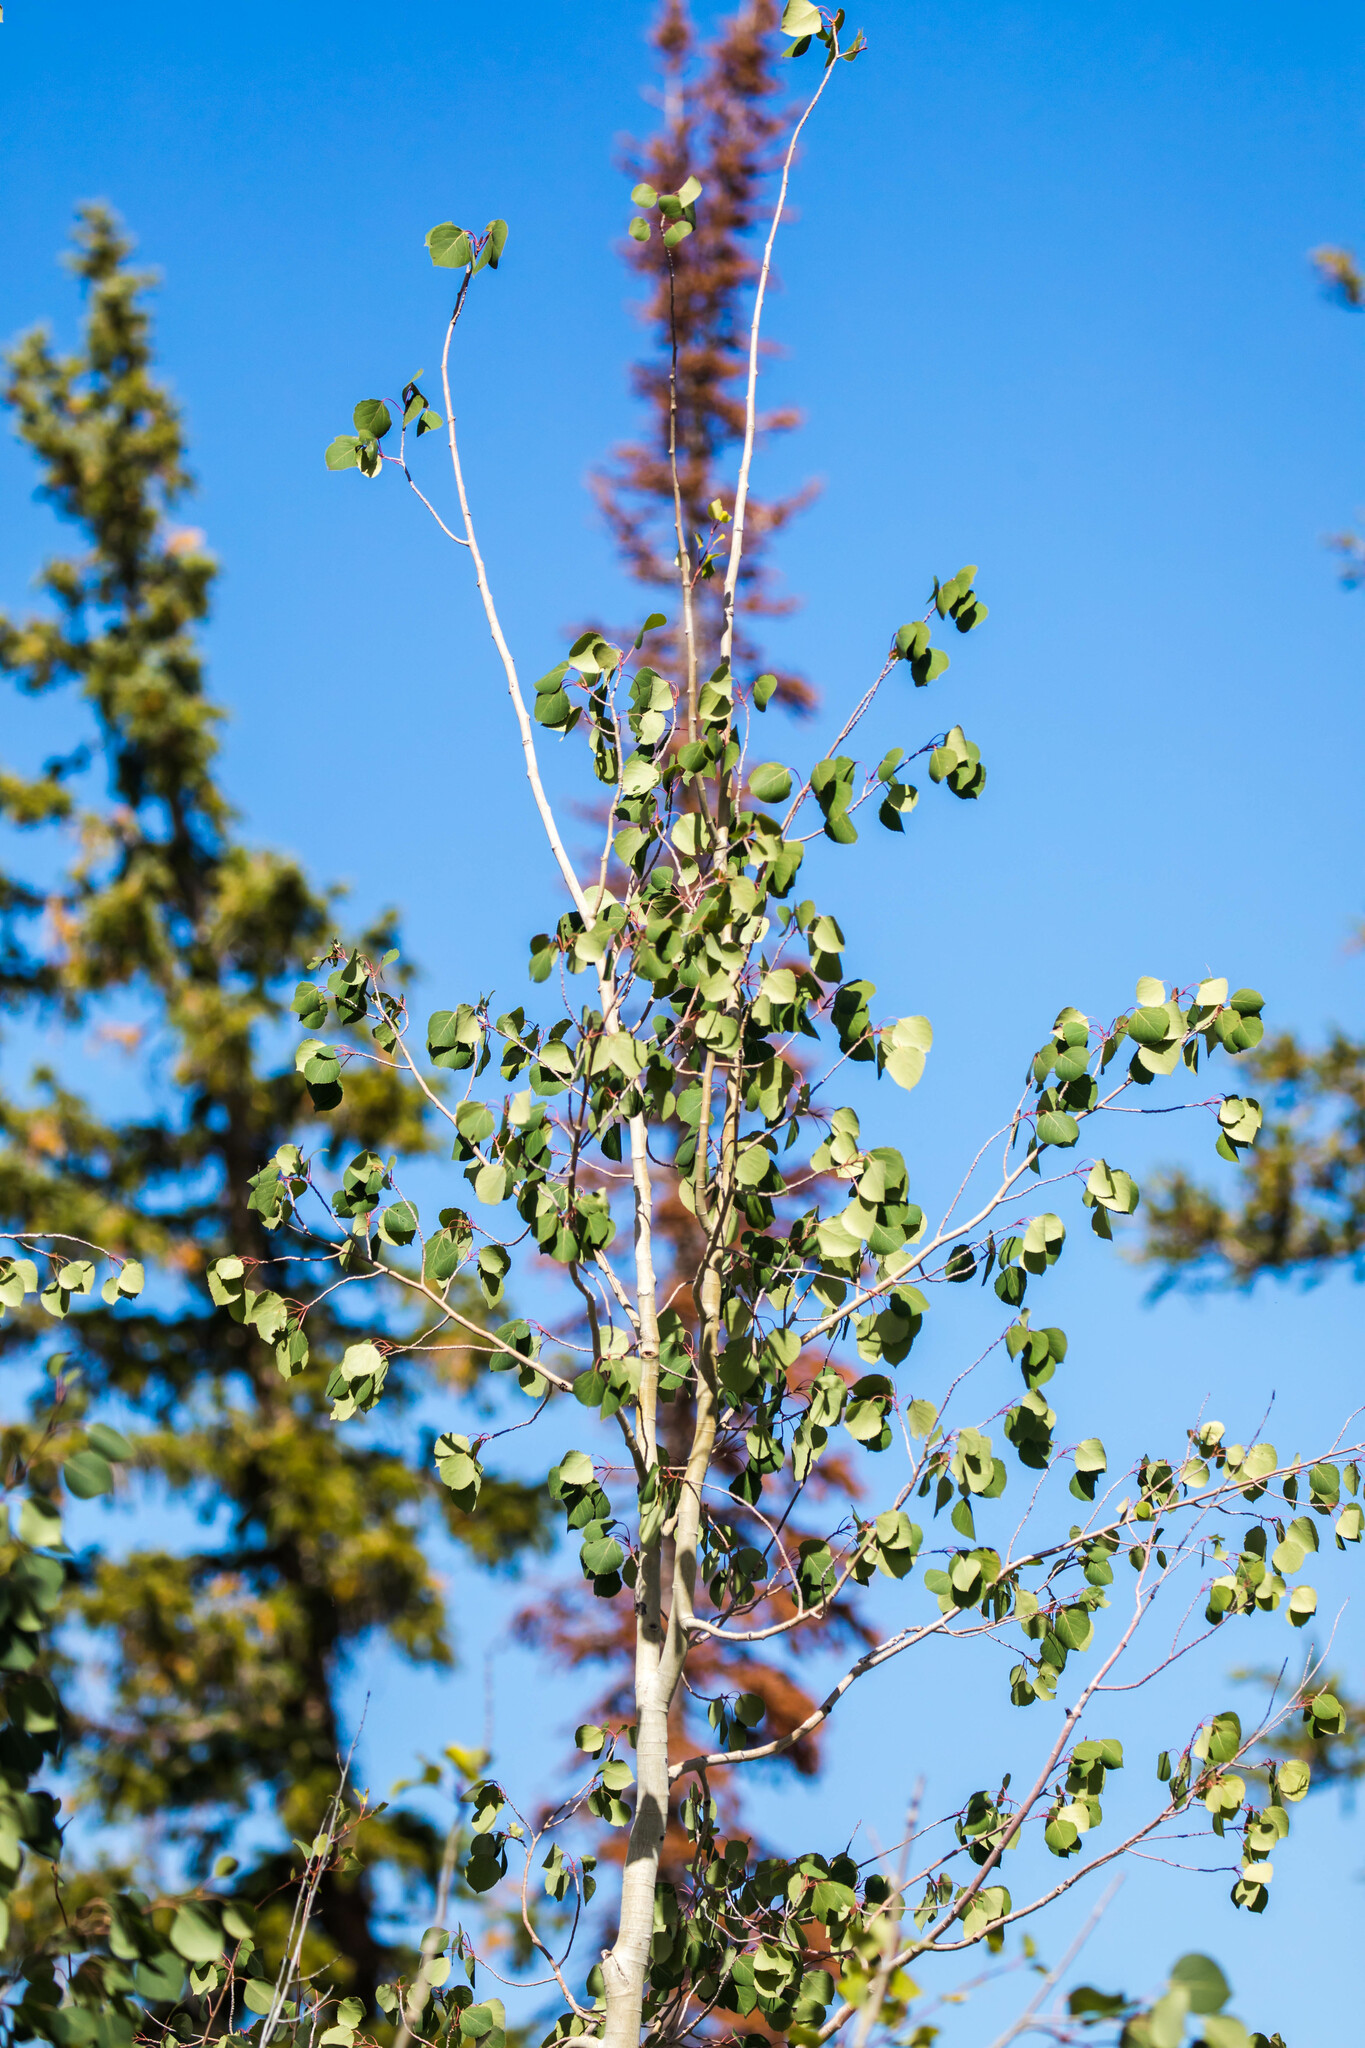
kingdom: Plantae
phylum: Tracheophyta
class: Magnoliopsida
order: Malpighiales
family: Salicaceae
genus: Populus
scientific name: Populus tremuloides
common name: Quaking aspen
